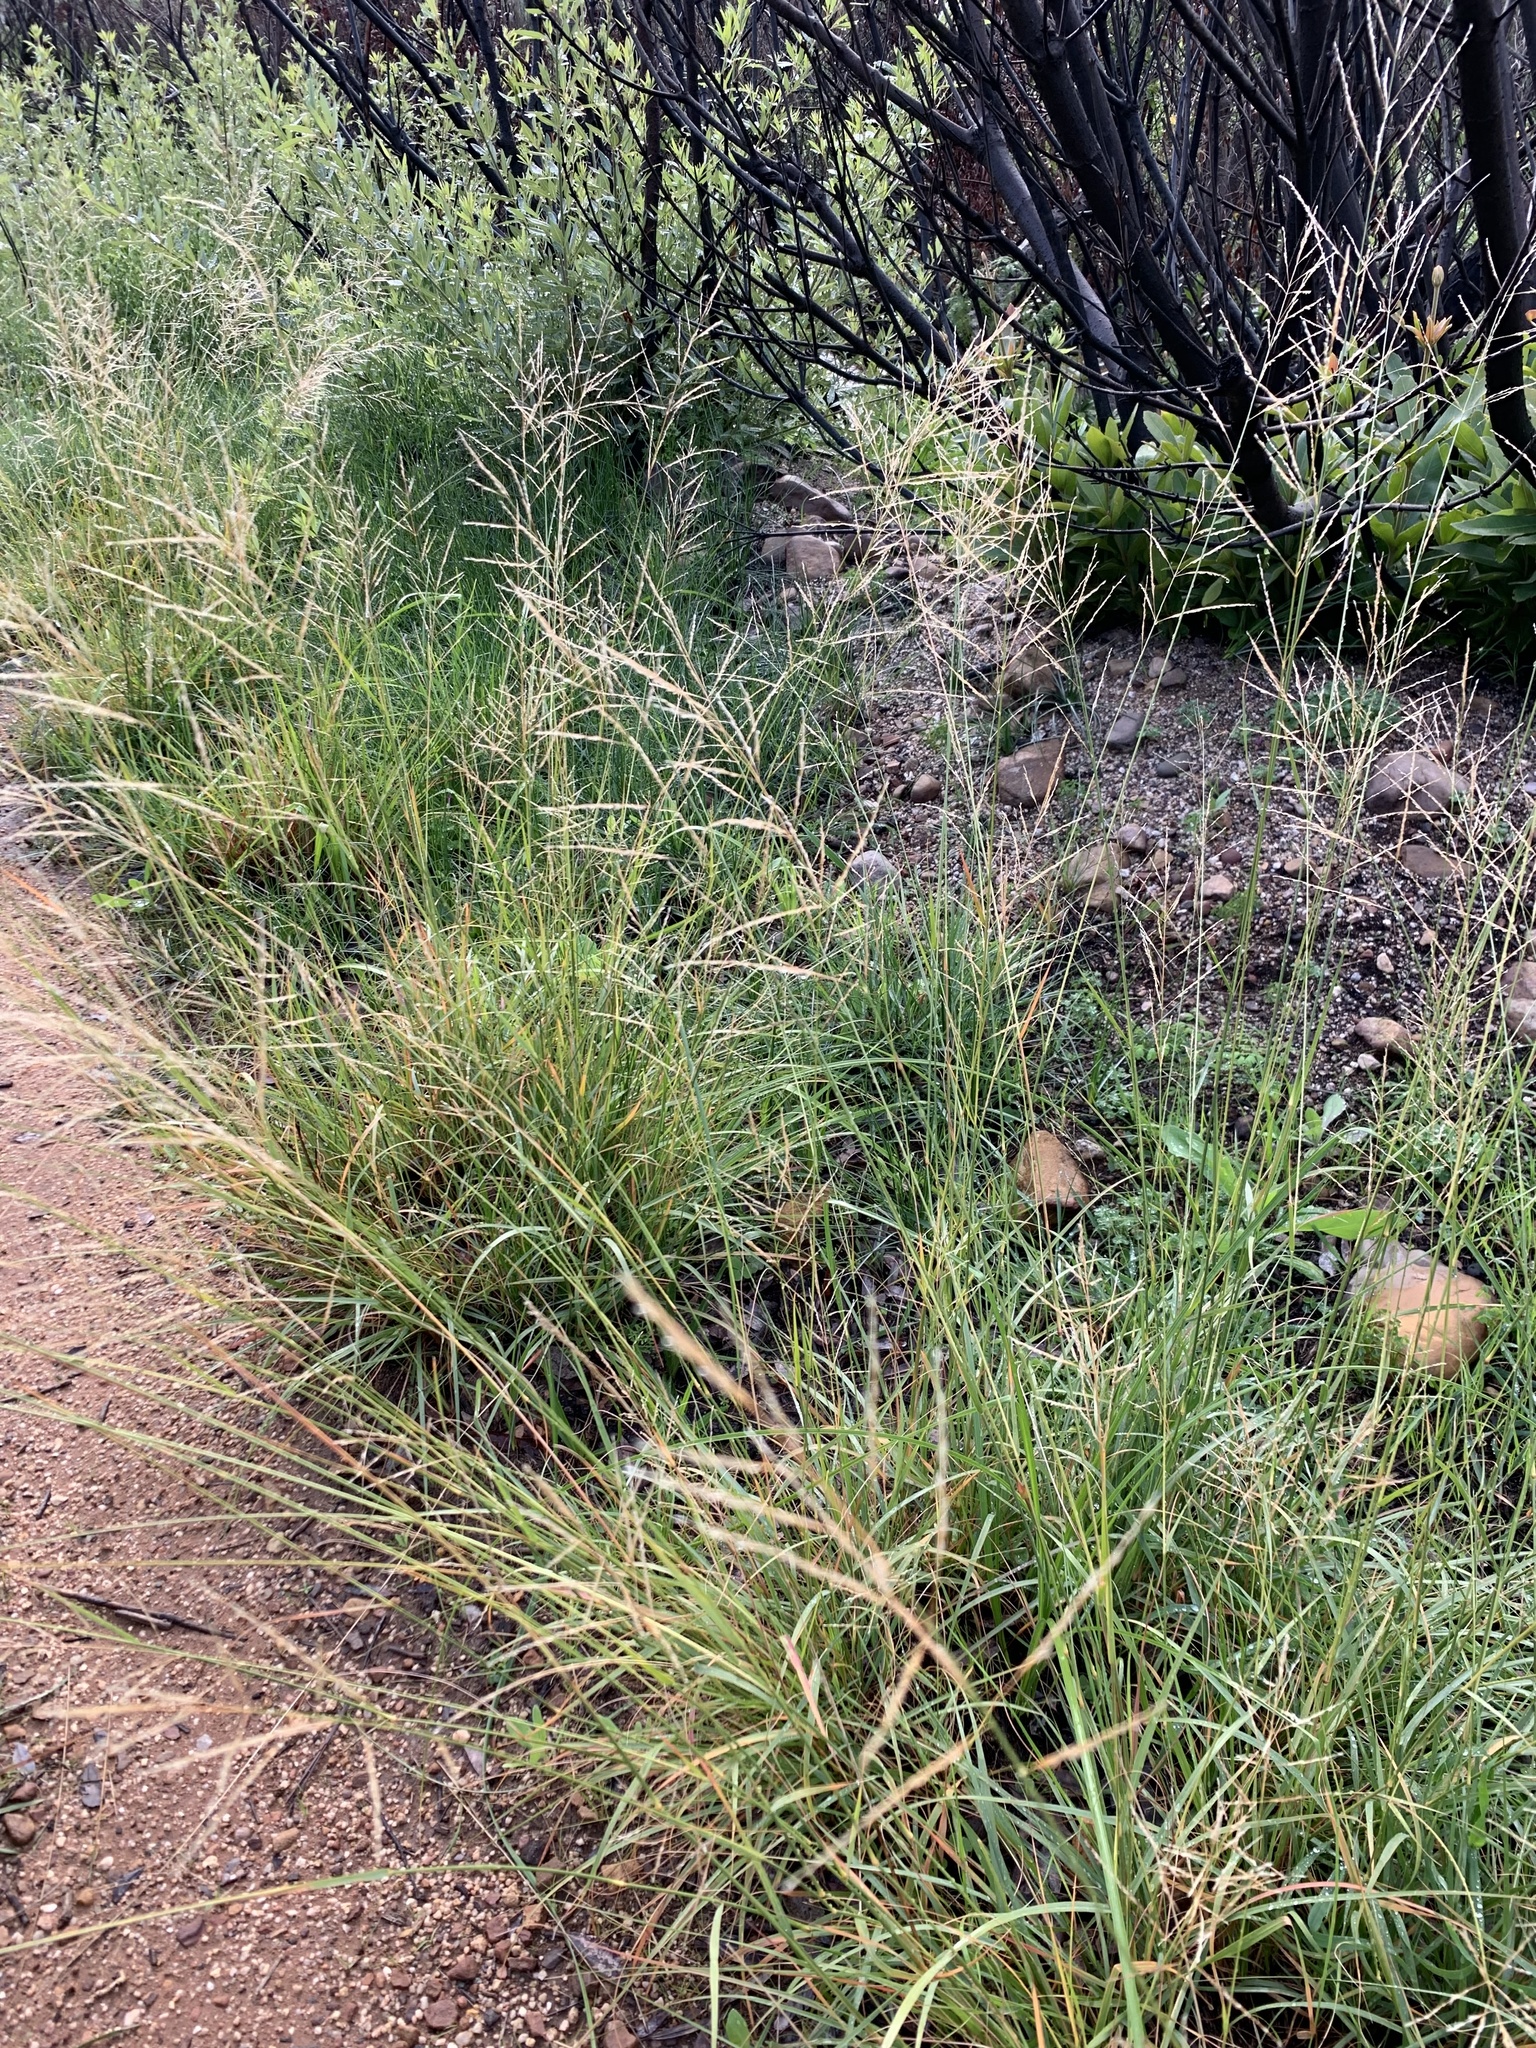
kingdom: Plantae
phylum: Tracheophyta
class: Liliopsida
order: Poales
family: Poaceae
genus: Eragrostis
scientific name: Eragrostis curvula
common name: African love-grass
